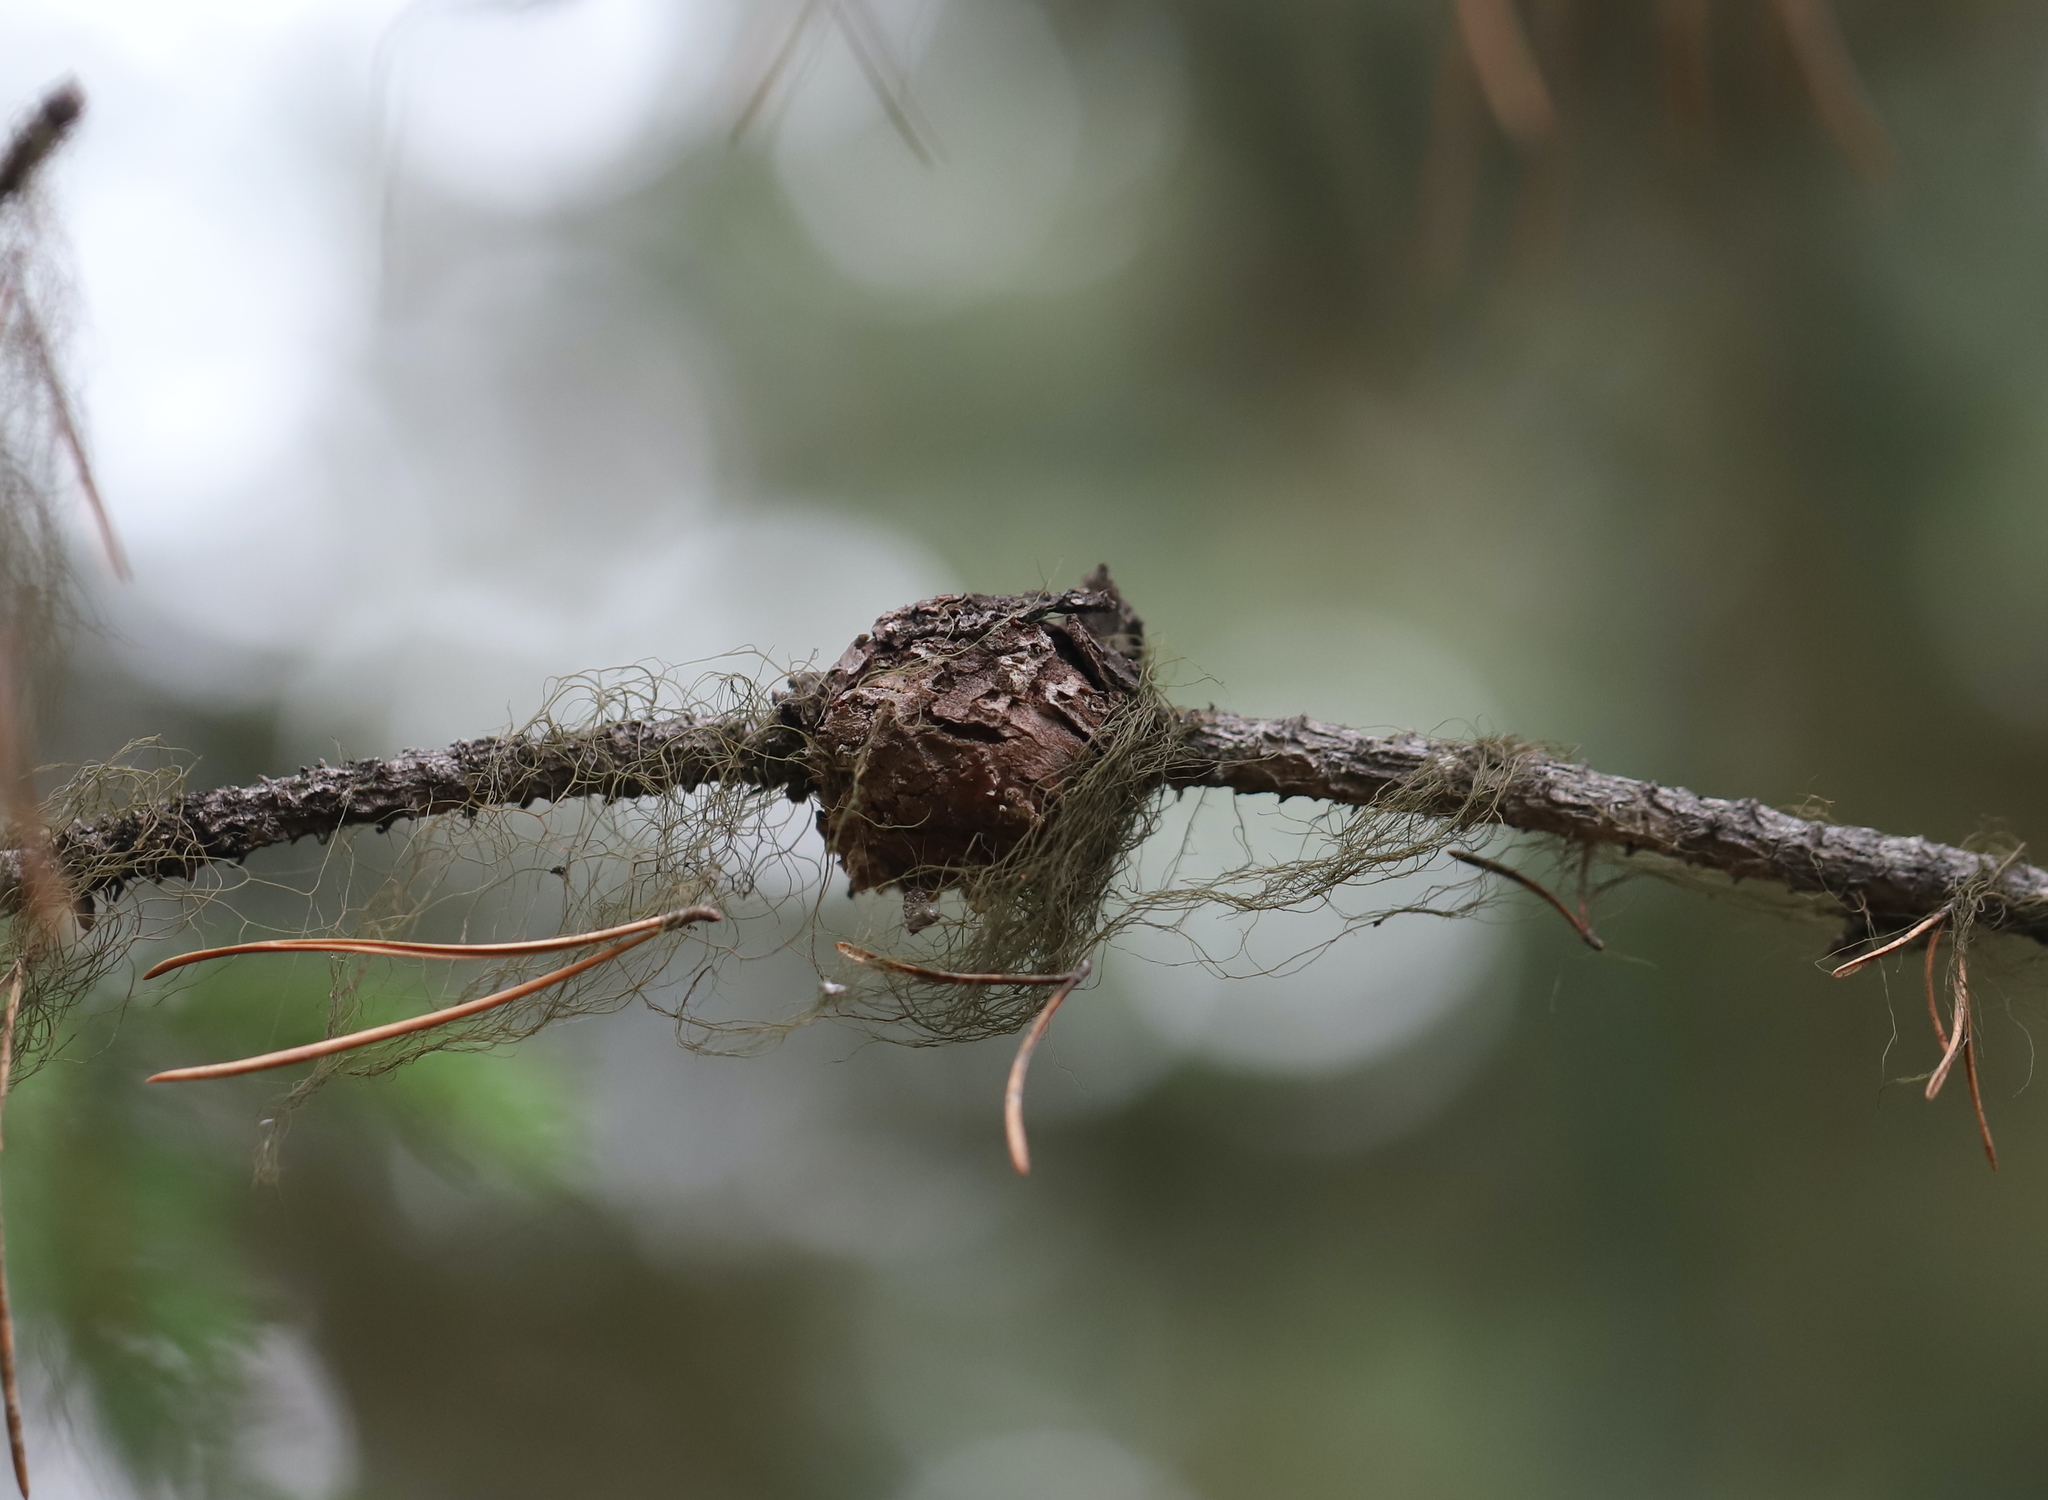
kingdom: Fungi
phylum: Basidiomycota
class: Pucciniomycetes
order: Pucciniales
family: Cronartiaceae
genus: Cronartium
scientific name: Cronartium harknessii
